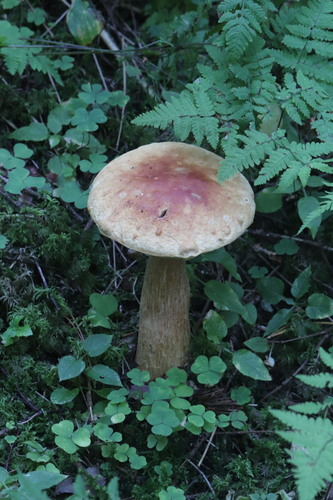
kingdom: Fungi
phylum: Basidiomycota
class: Agaricomycetes
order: Boletales
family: Boletaceae
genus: Boletus
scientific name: Boletus edulis
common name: Cep
